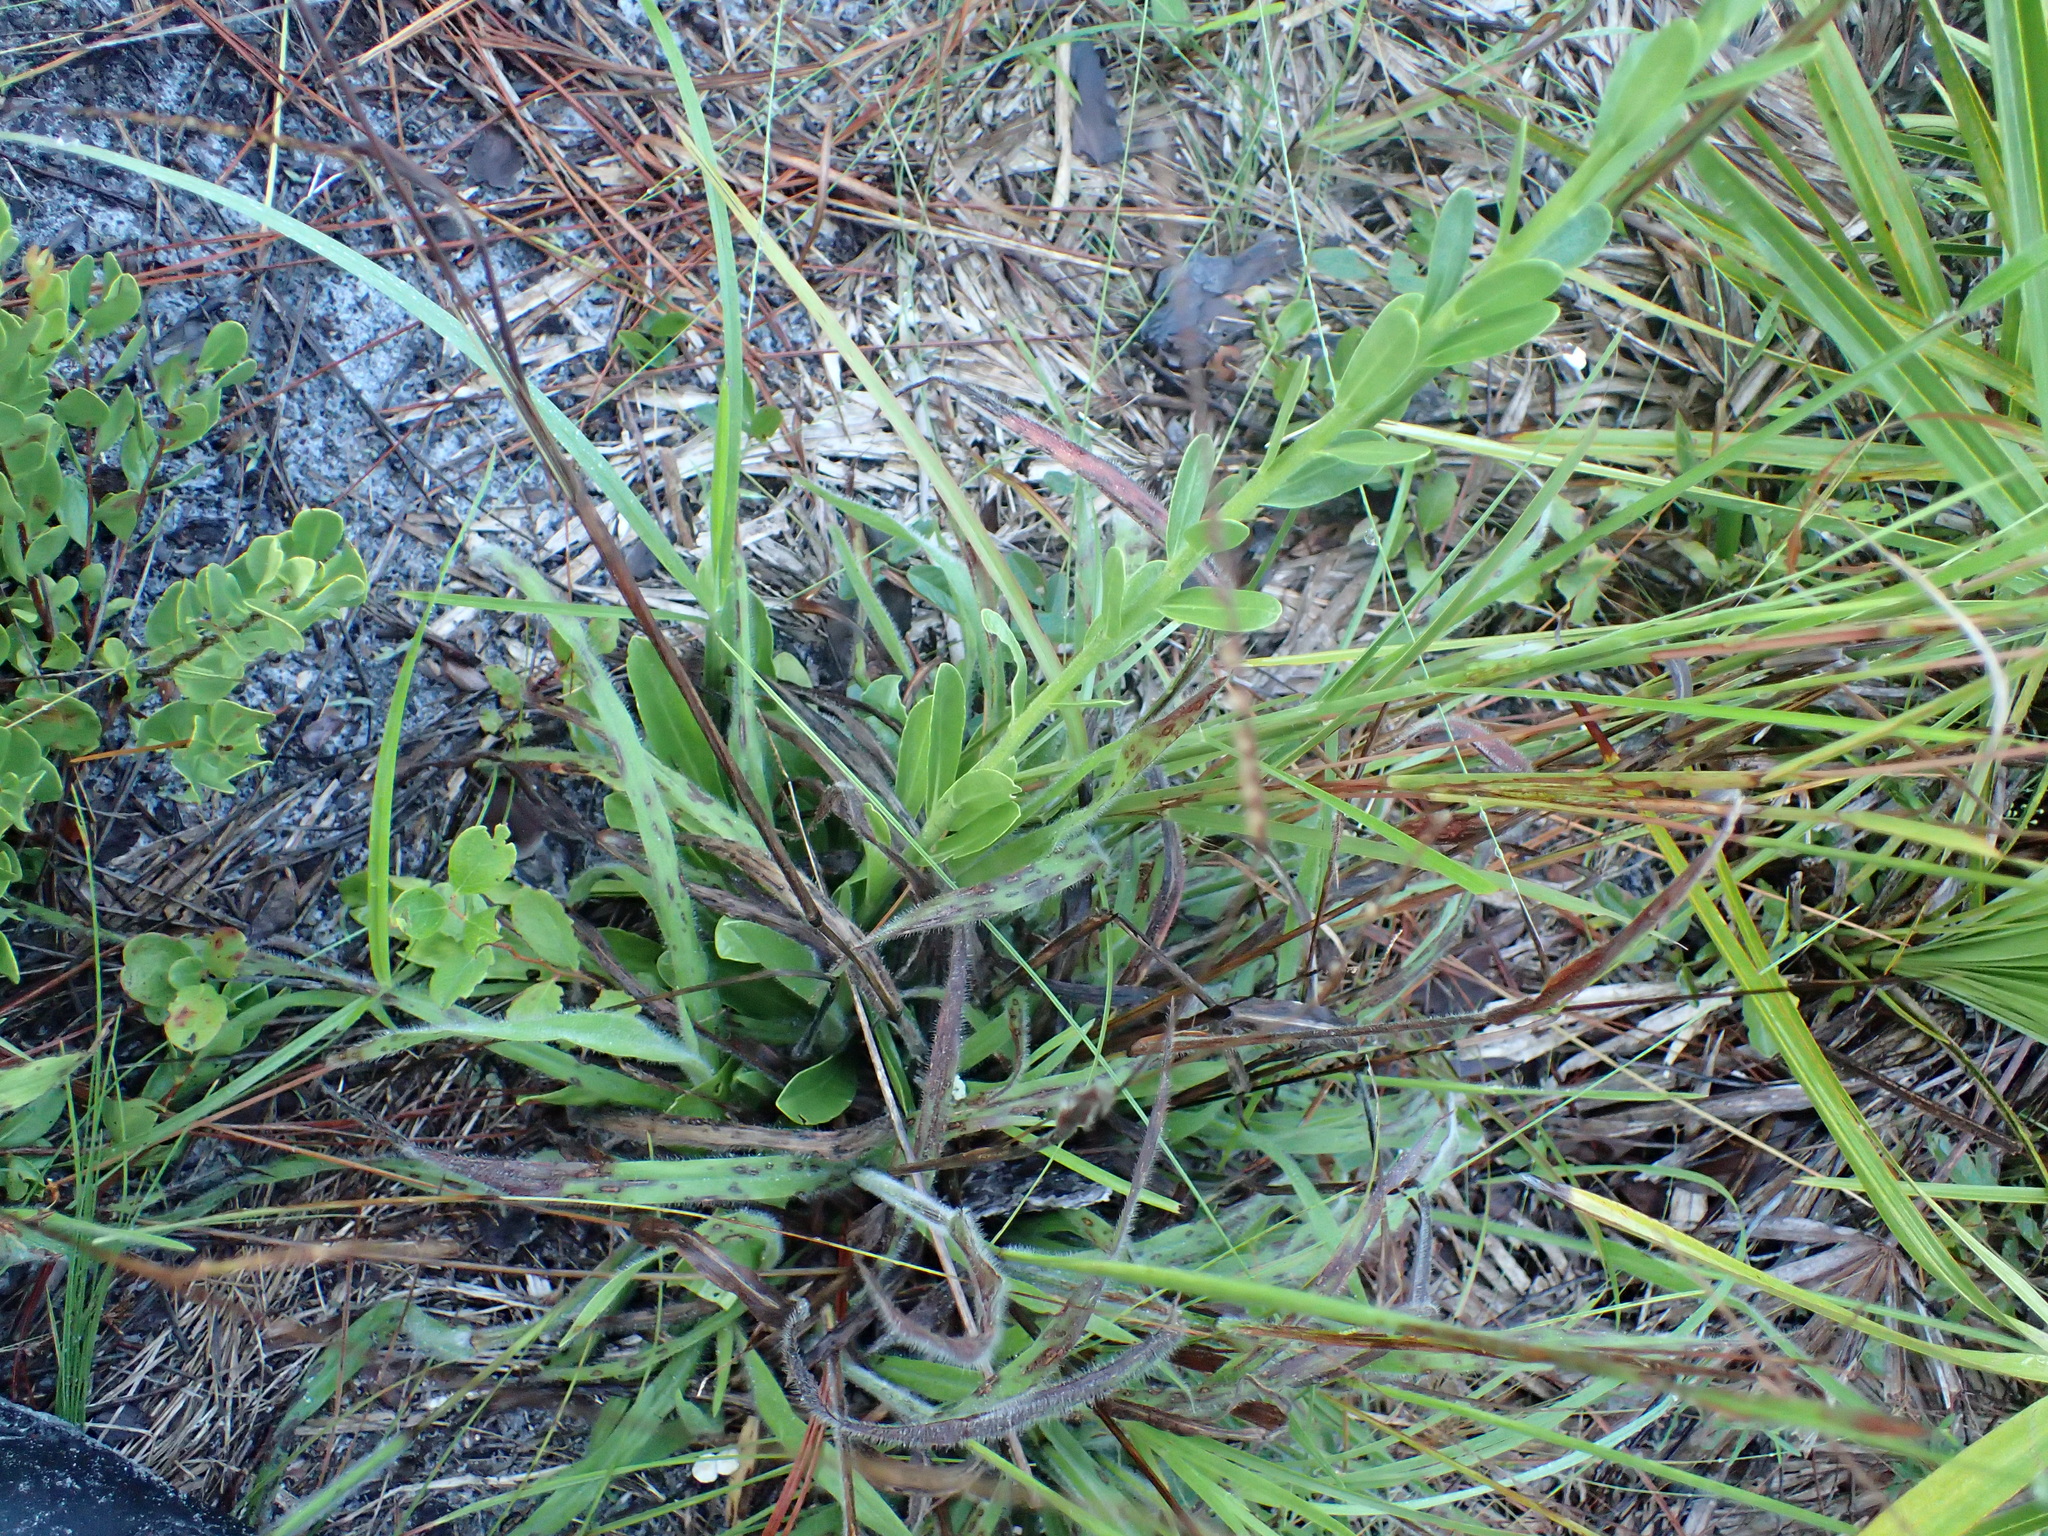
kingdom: Plantae
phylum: Tracheophyta
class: Magnoliopsida
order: Asterales
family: Asteraceae
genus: Carphephorus
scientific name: Carphephorus corymbosus
